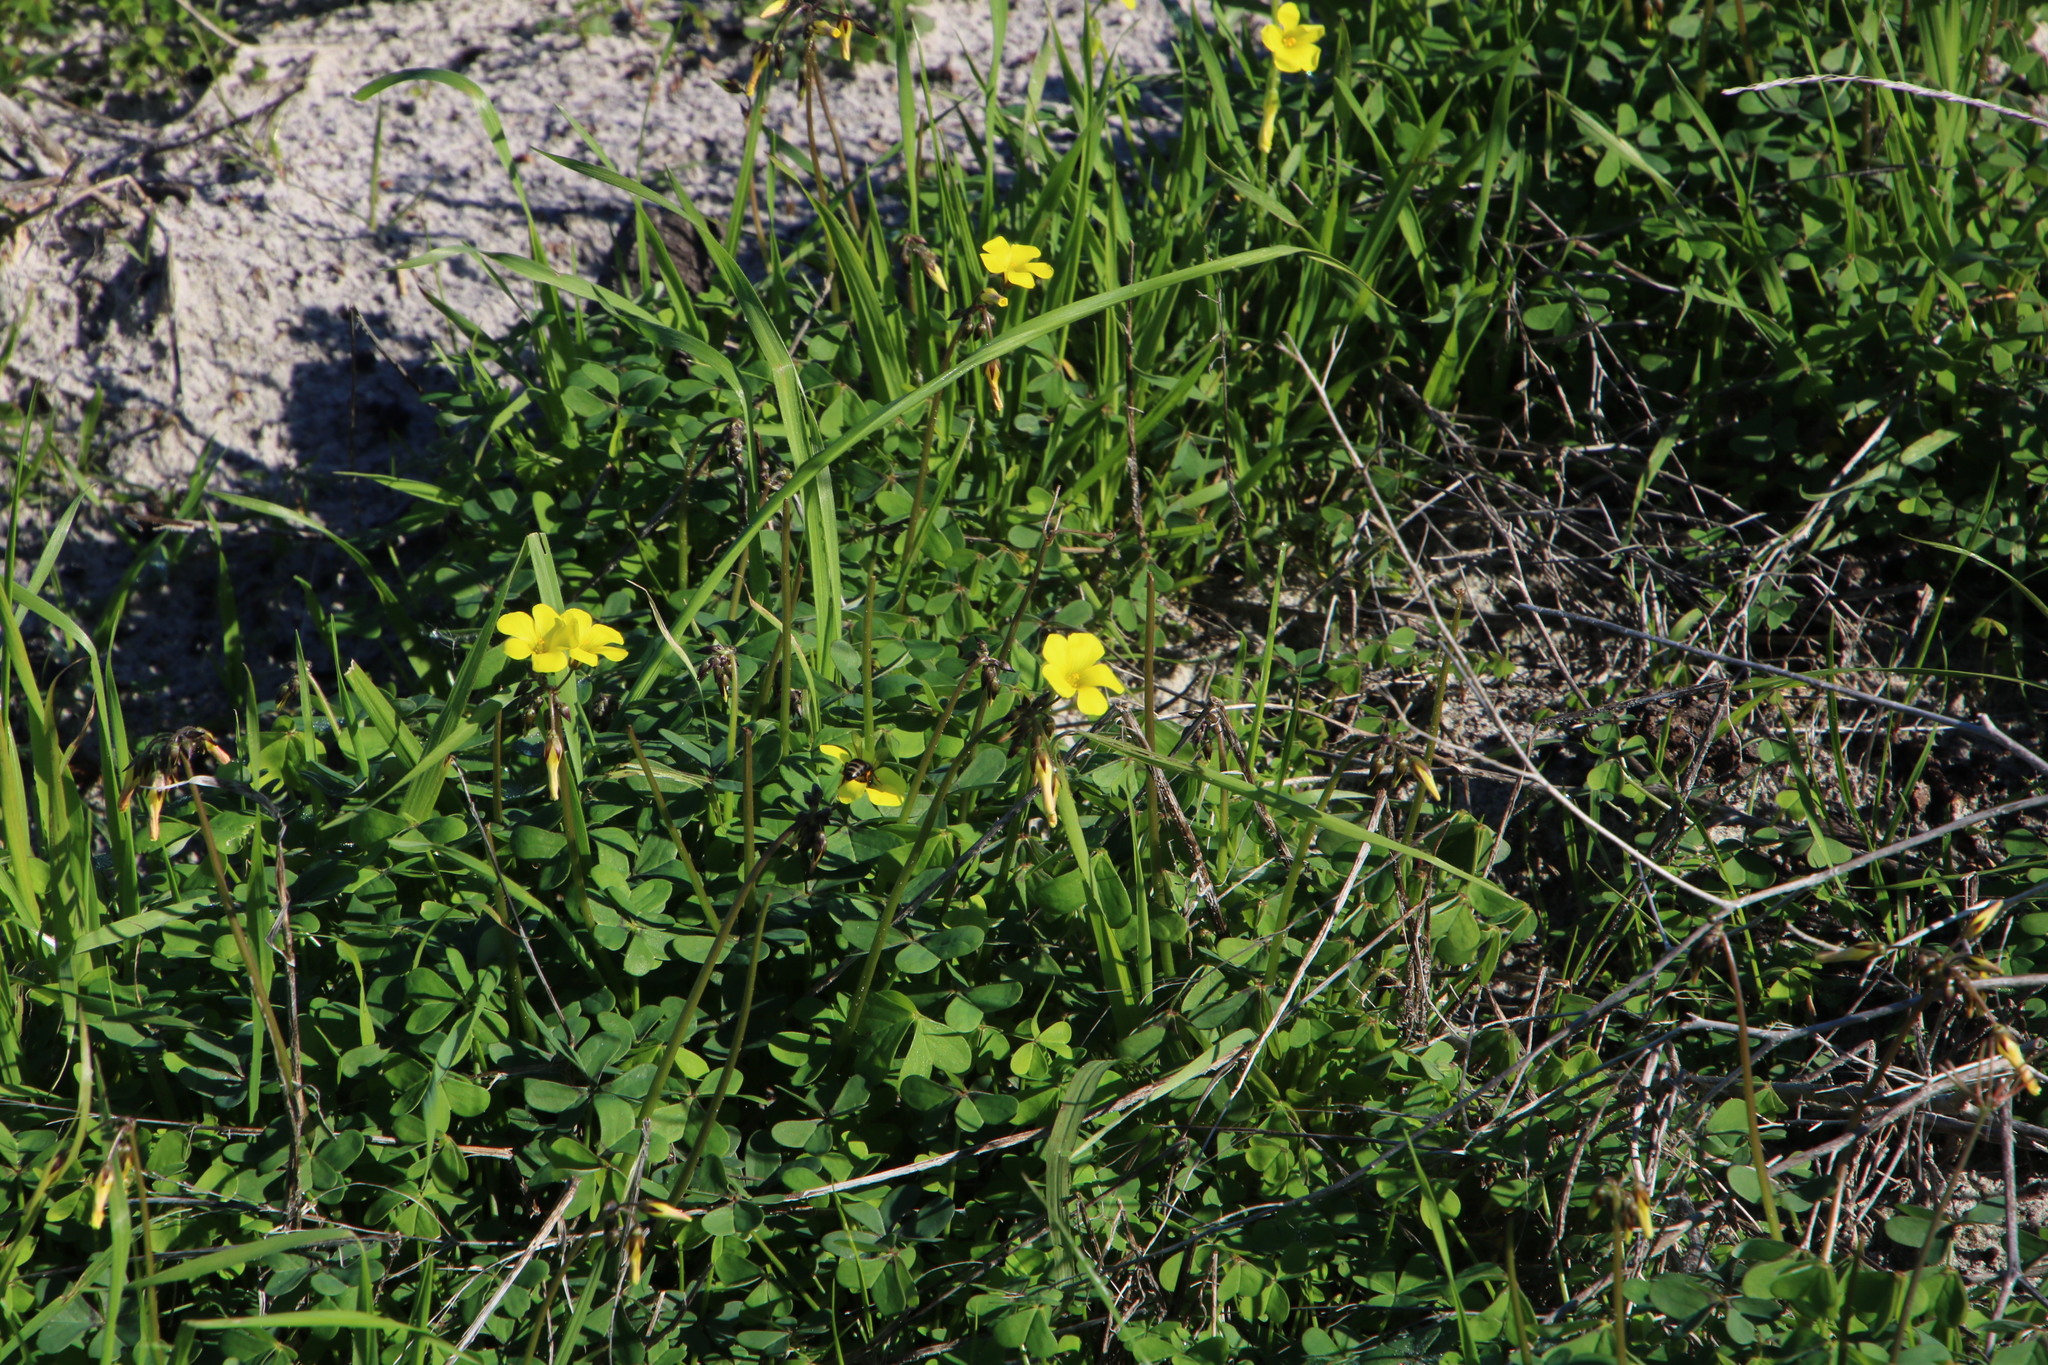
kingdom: Plantae
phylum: Tracheophyta
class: Magnoliopsida
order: Oxalidales
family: Oxalidaceae
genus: Oxalis
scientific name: Oxalis pes-caprae
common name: Bermuda-buttercup
